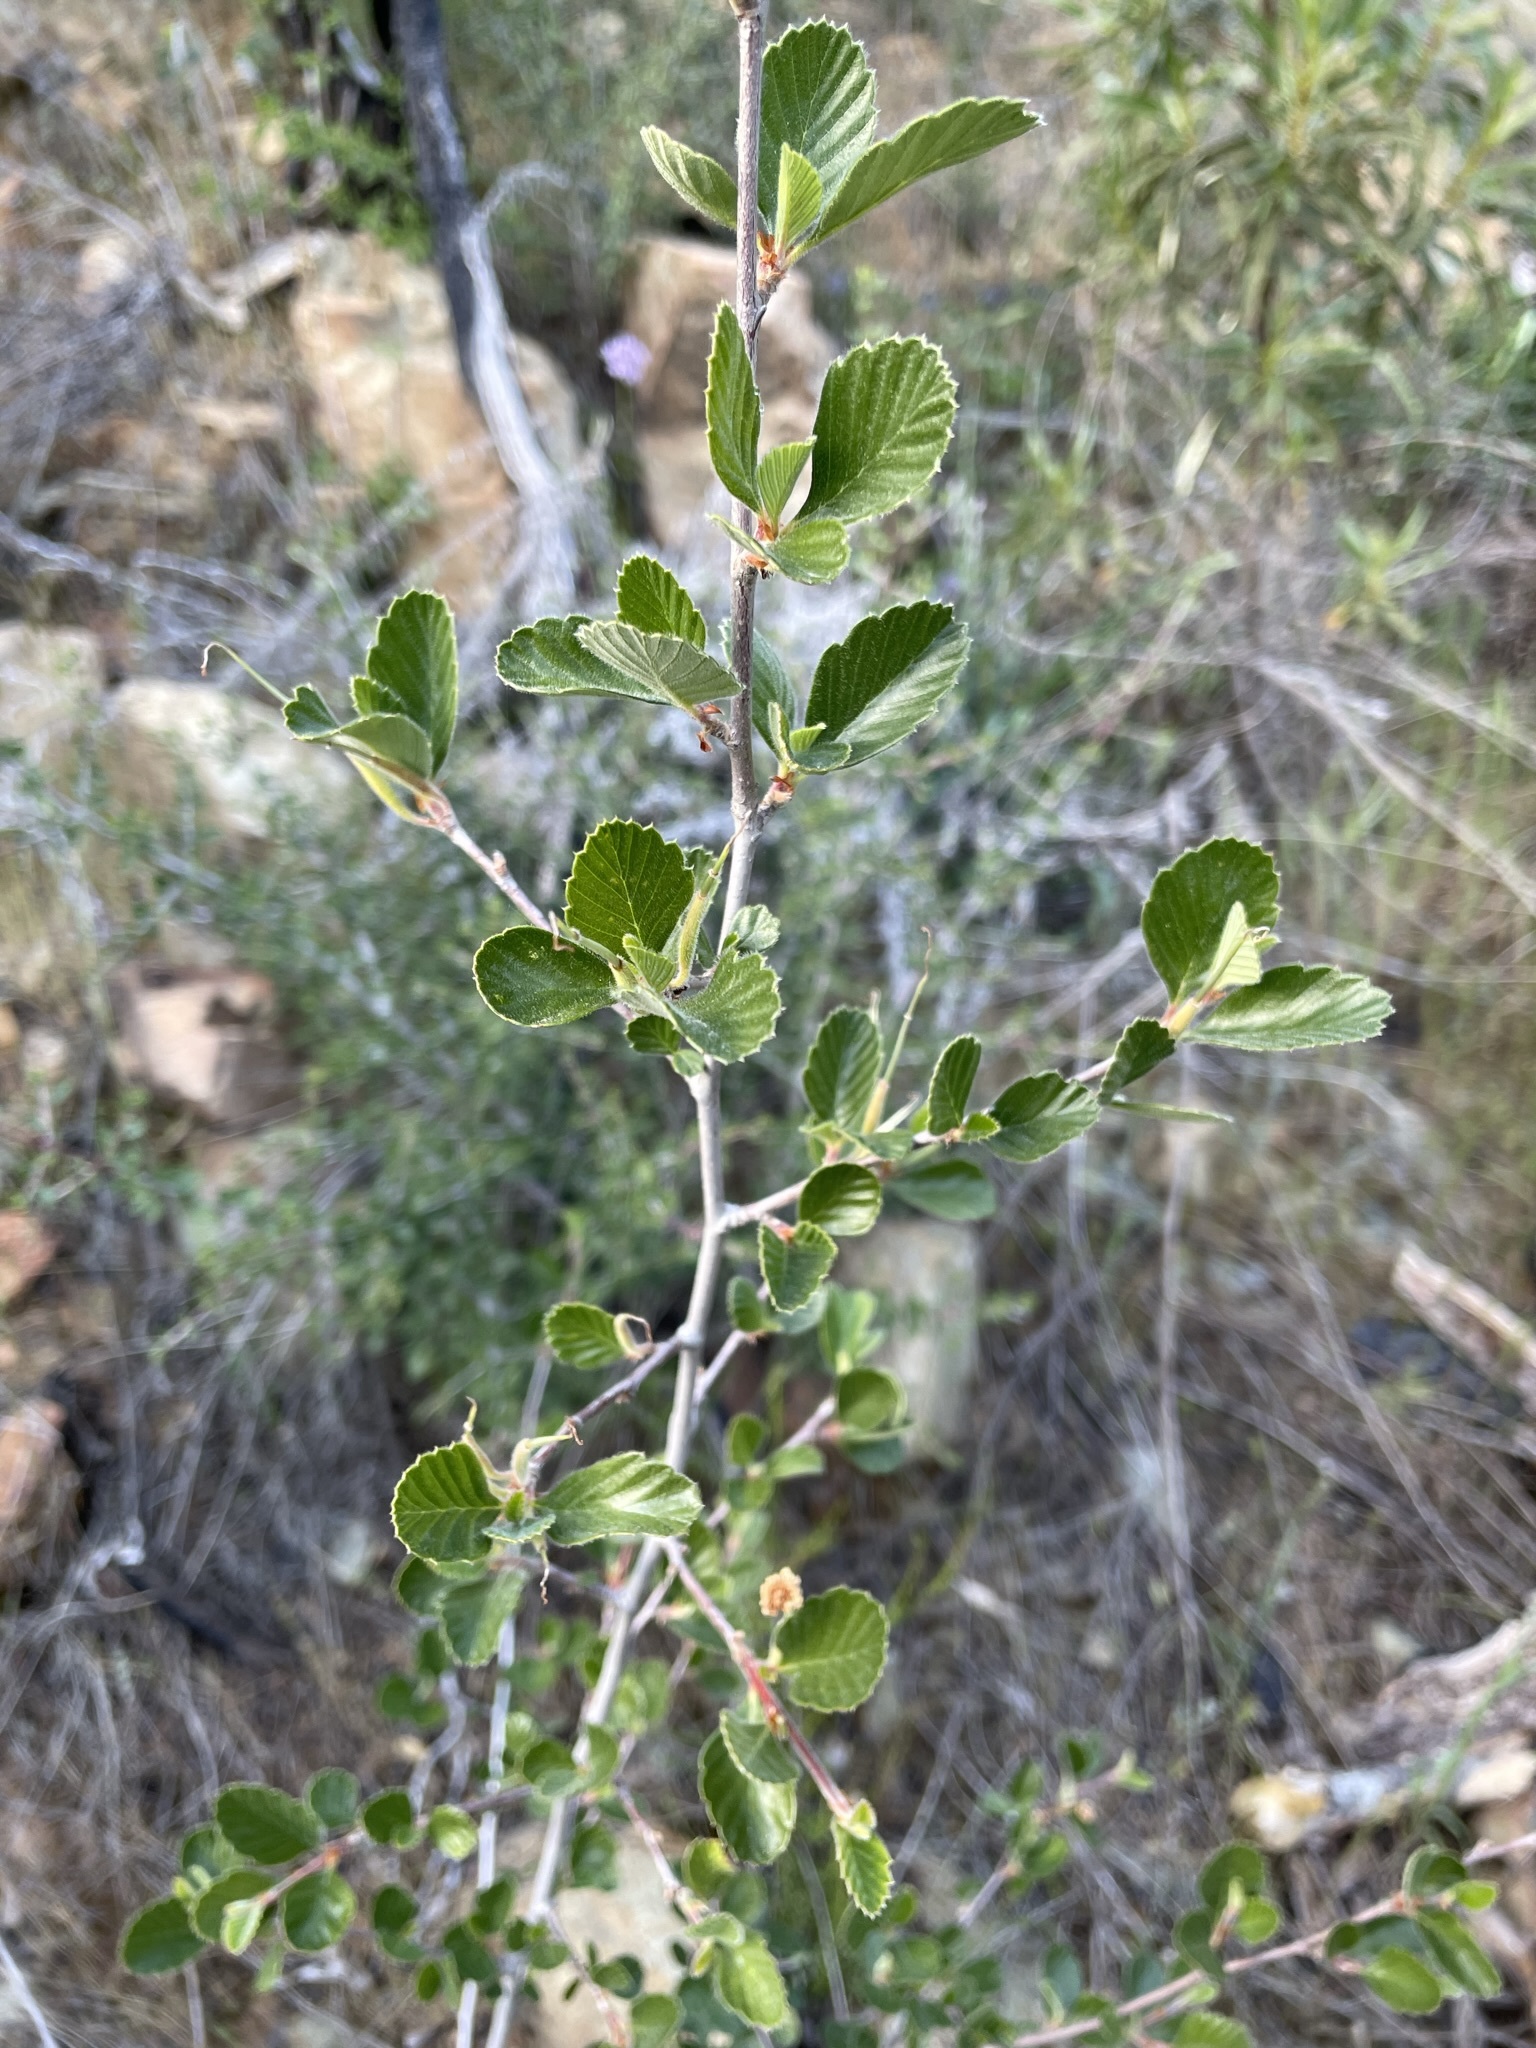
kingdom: Plantae
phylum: Tracheophyta
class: Magnoliopsida
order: Rosales
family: Rosaceae
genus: Cercocarpus
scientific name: Cercocarpus betuloides
